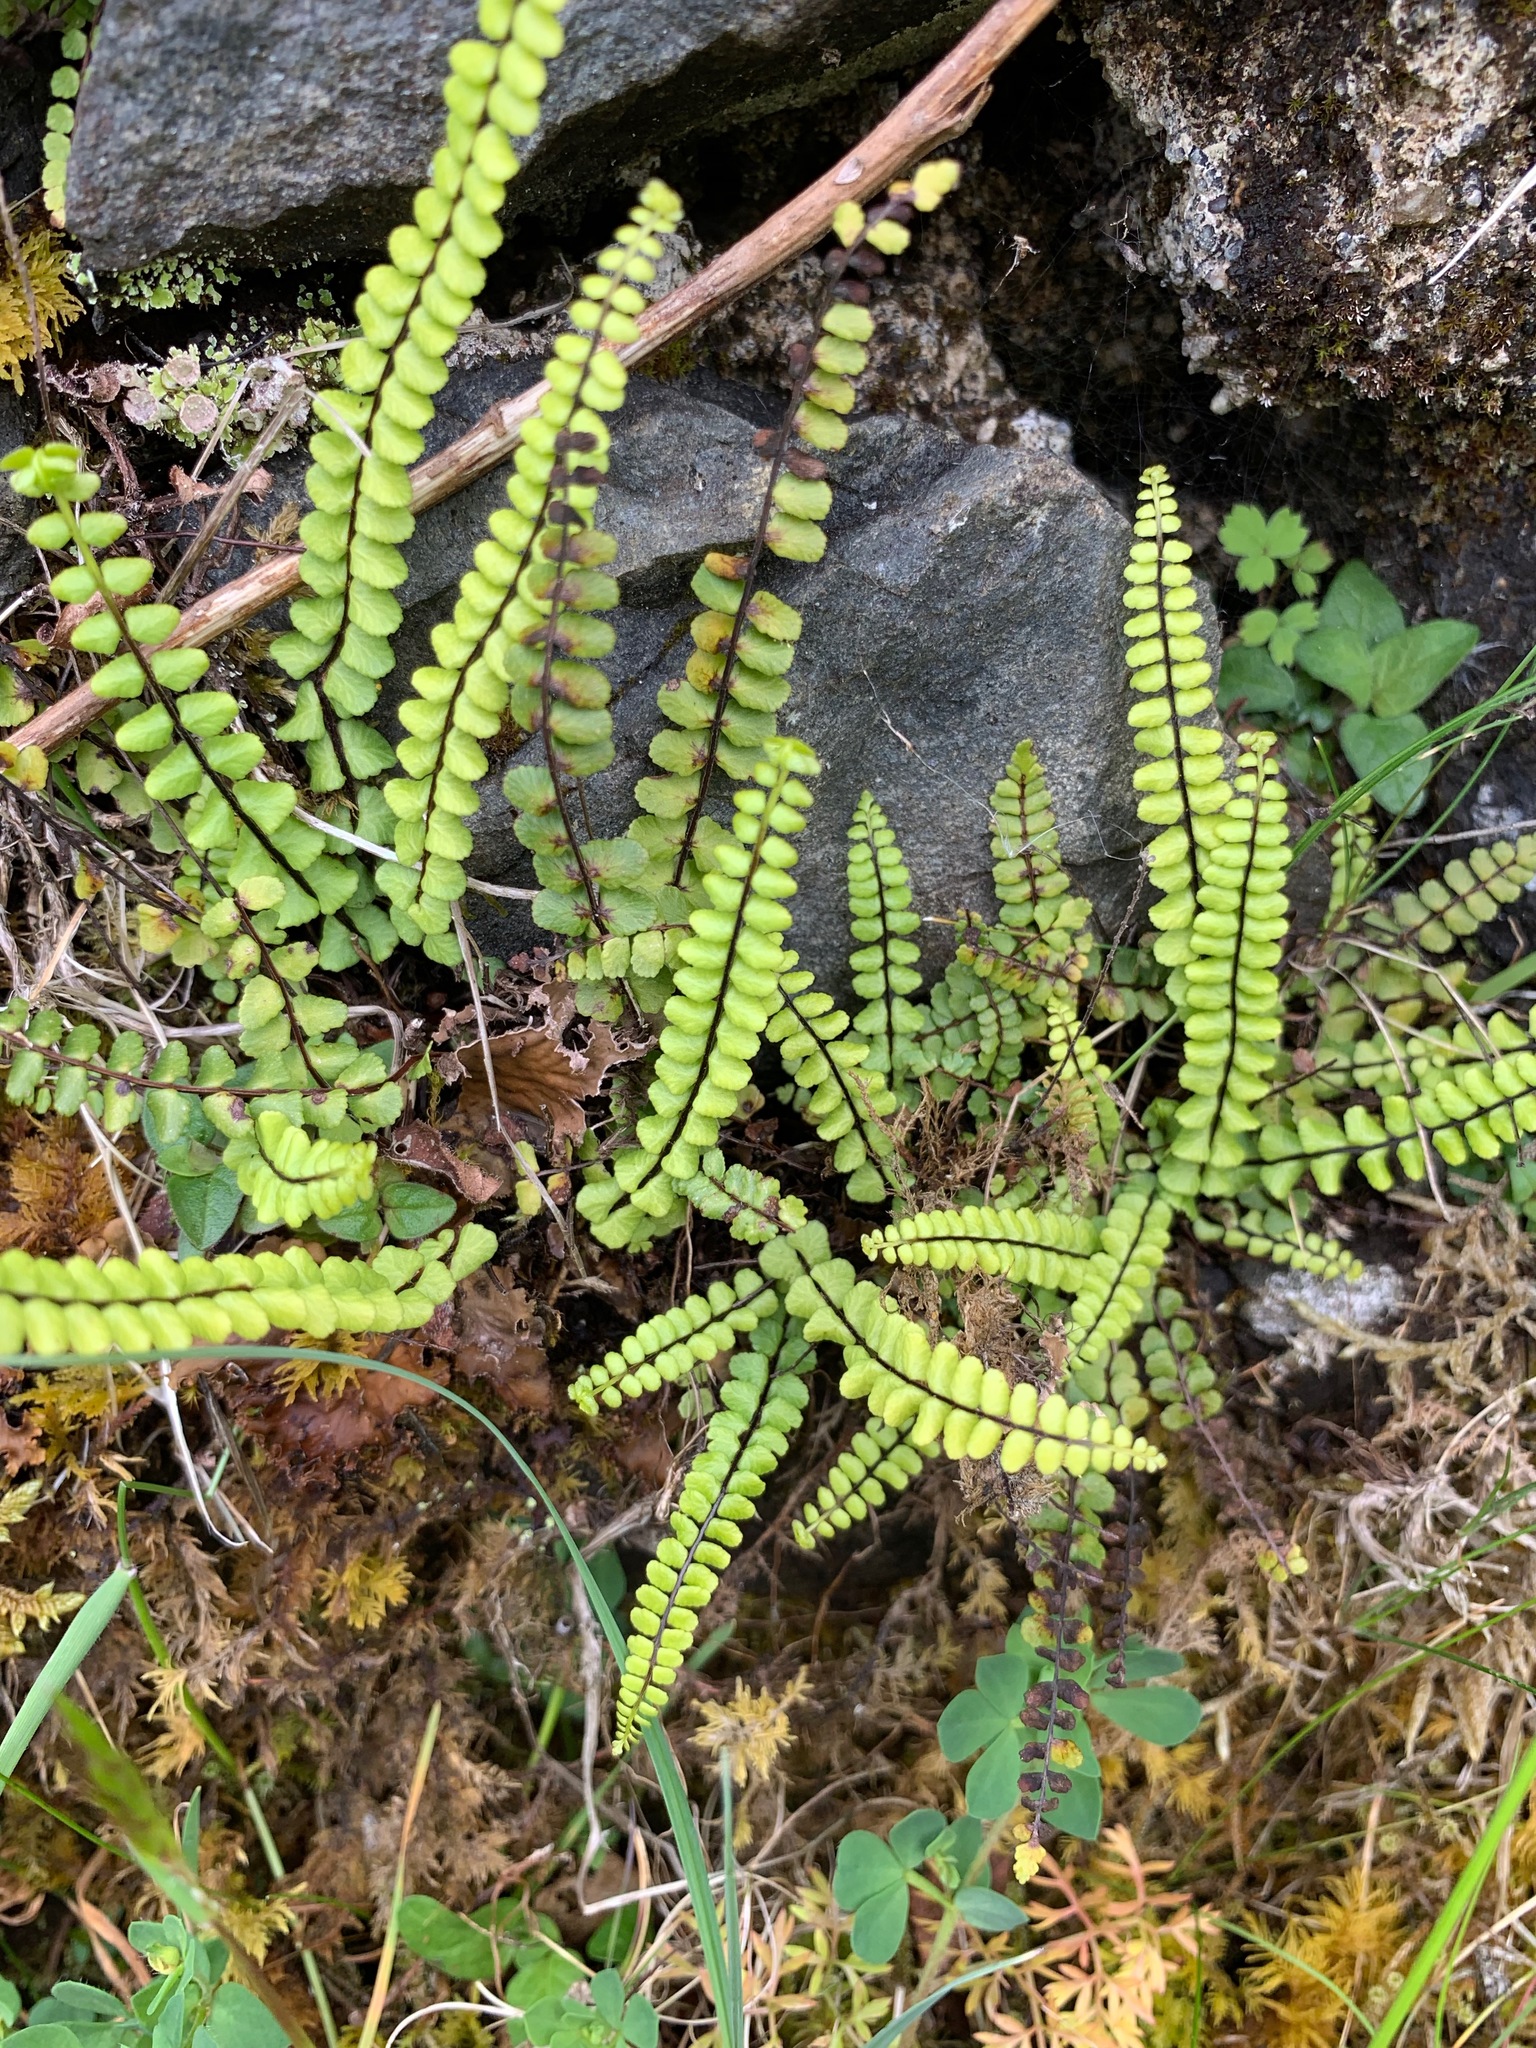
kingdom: Plantae
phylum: Tracheophyta
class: Polypodiopsida
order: Polypodiales
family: Aspleniaceae
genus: Asplenium
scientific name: Asplenium trichomanes
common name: Maidenhair spleenwort
